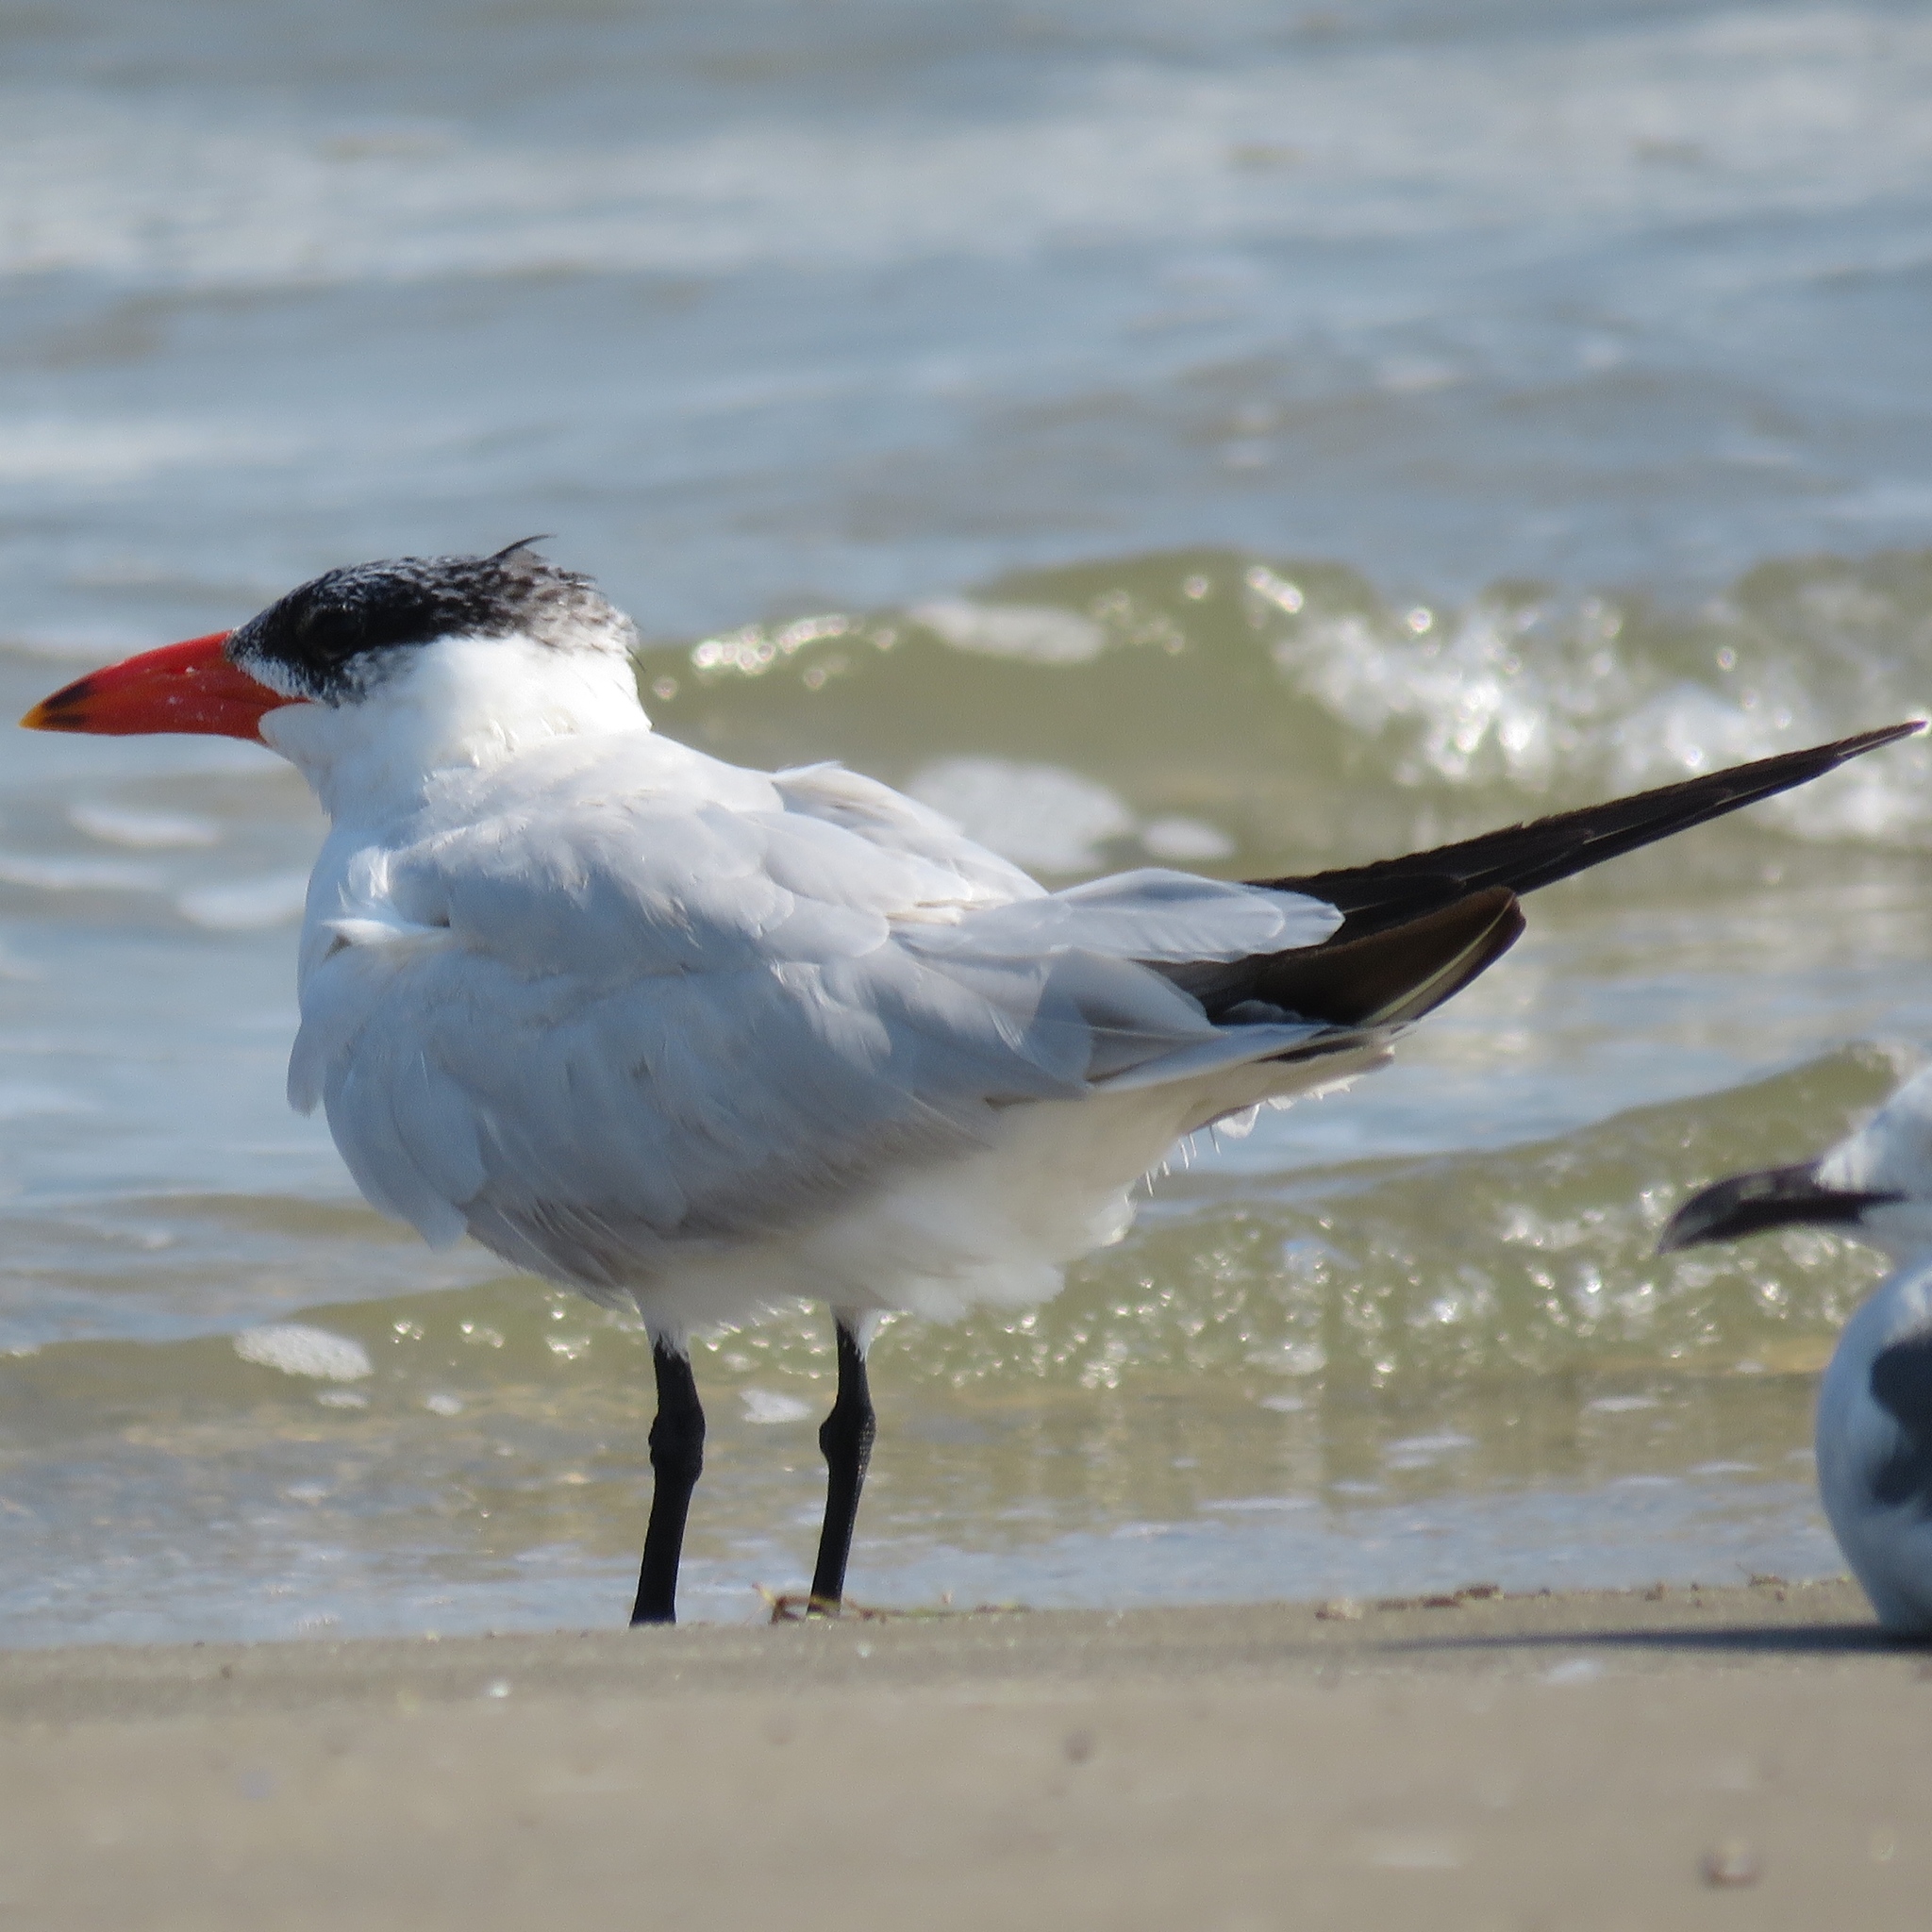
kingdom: Animalia
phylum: Chordata
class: Aves
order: Charadriiformes
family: Laridae
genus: Hydroprogne
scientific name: Hydroprogne caspia
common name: Caspian tern
